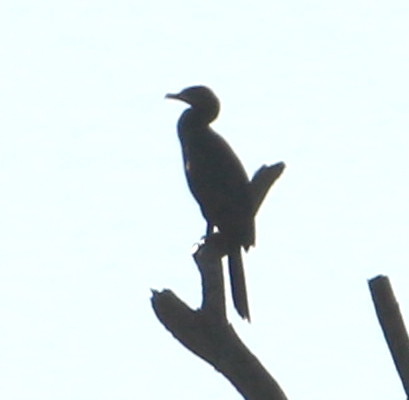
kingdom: Animalia
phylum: Chordata
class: Aves
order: Suliformes
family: Phalacrocoracidae
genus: Phalacrocorax
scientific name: Phalacrocorax brasilianus
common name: Neotropic cormorant
